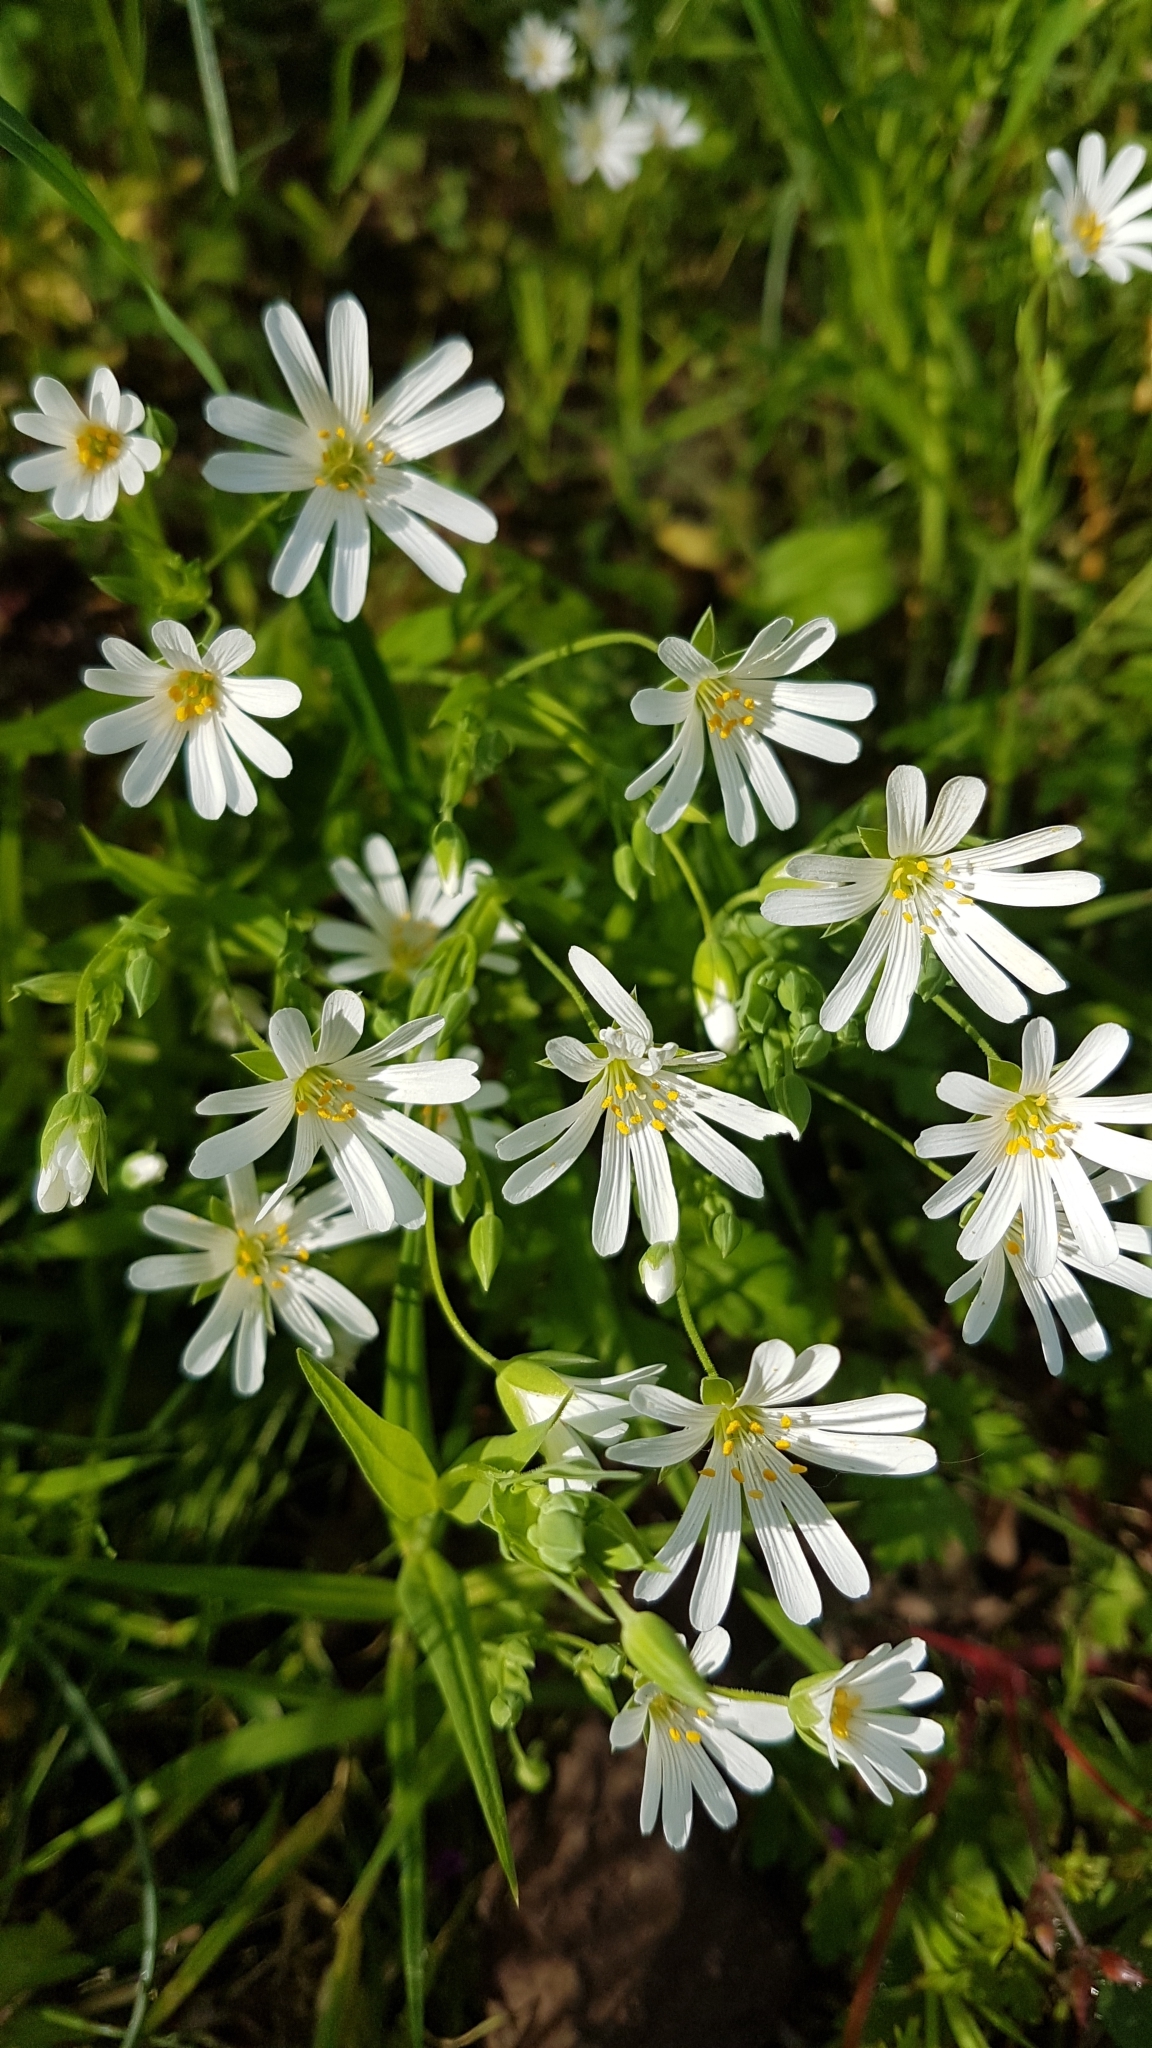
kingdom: Plantae
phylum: Tracheophyta
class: Magnoliopsida
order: Caryophyllales
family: Caryophyllaceae
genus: Rabelera
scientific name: Rabelera holostea
